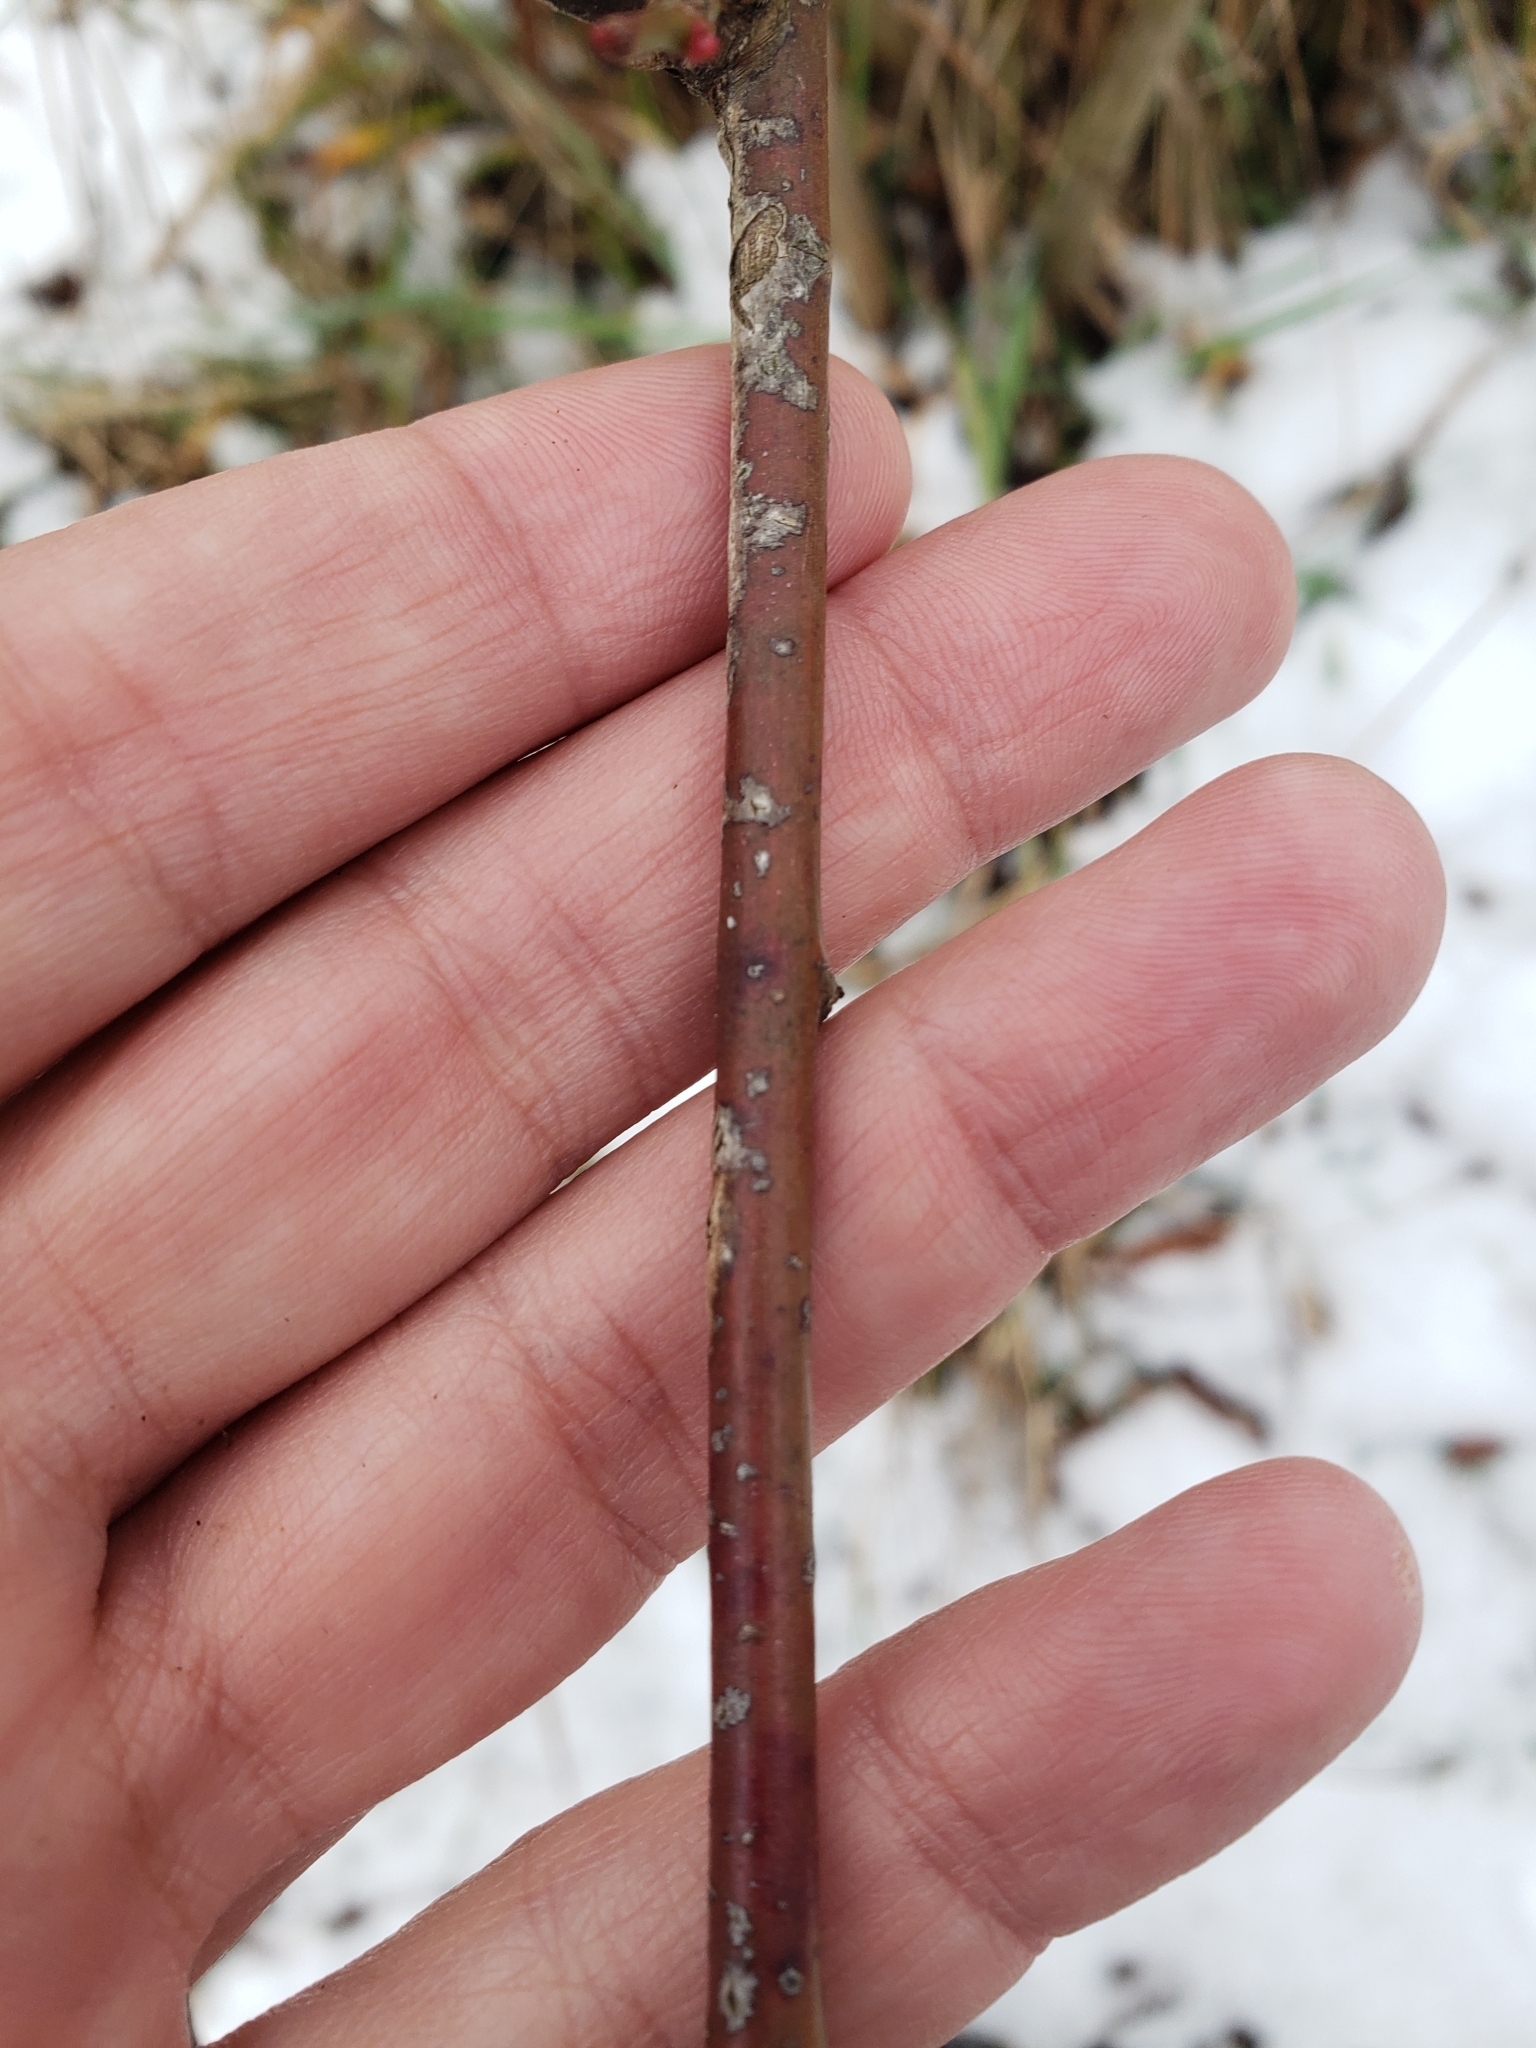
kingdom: Plantae
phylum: Tracheophyta
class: Magnoliopsida
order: Rosales
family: Rosaceae
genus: Rosa
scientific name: Rosa multiflora
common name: Multiflora rose
